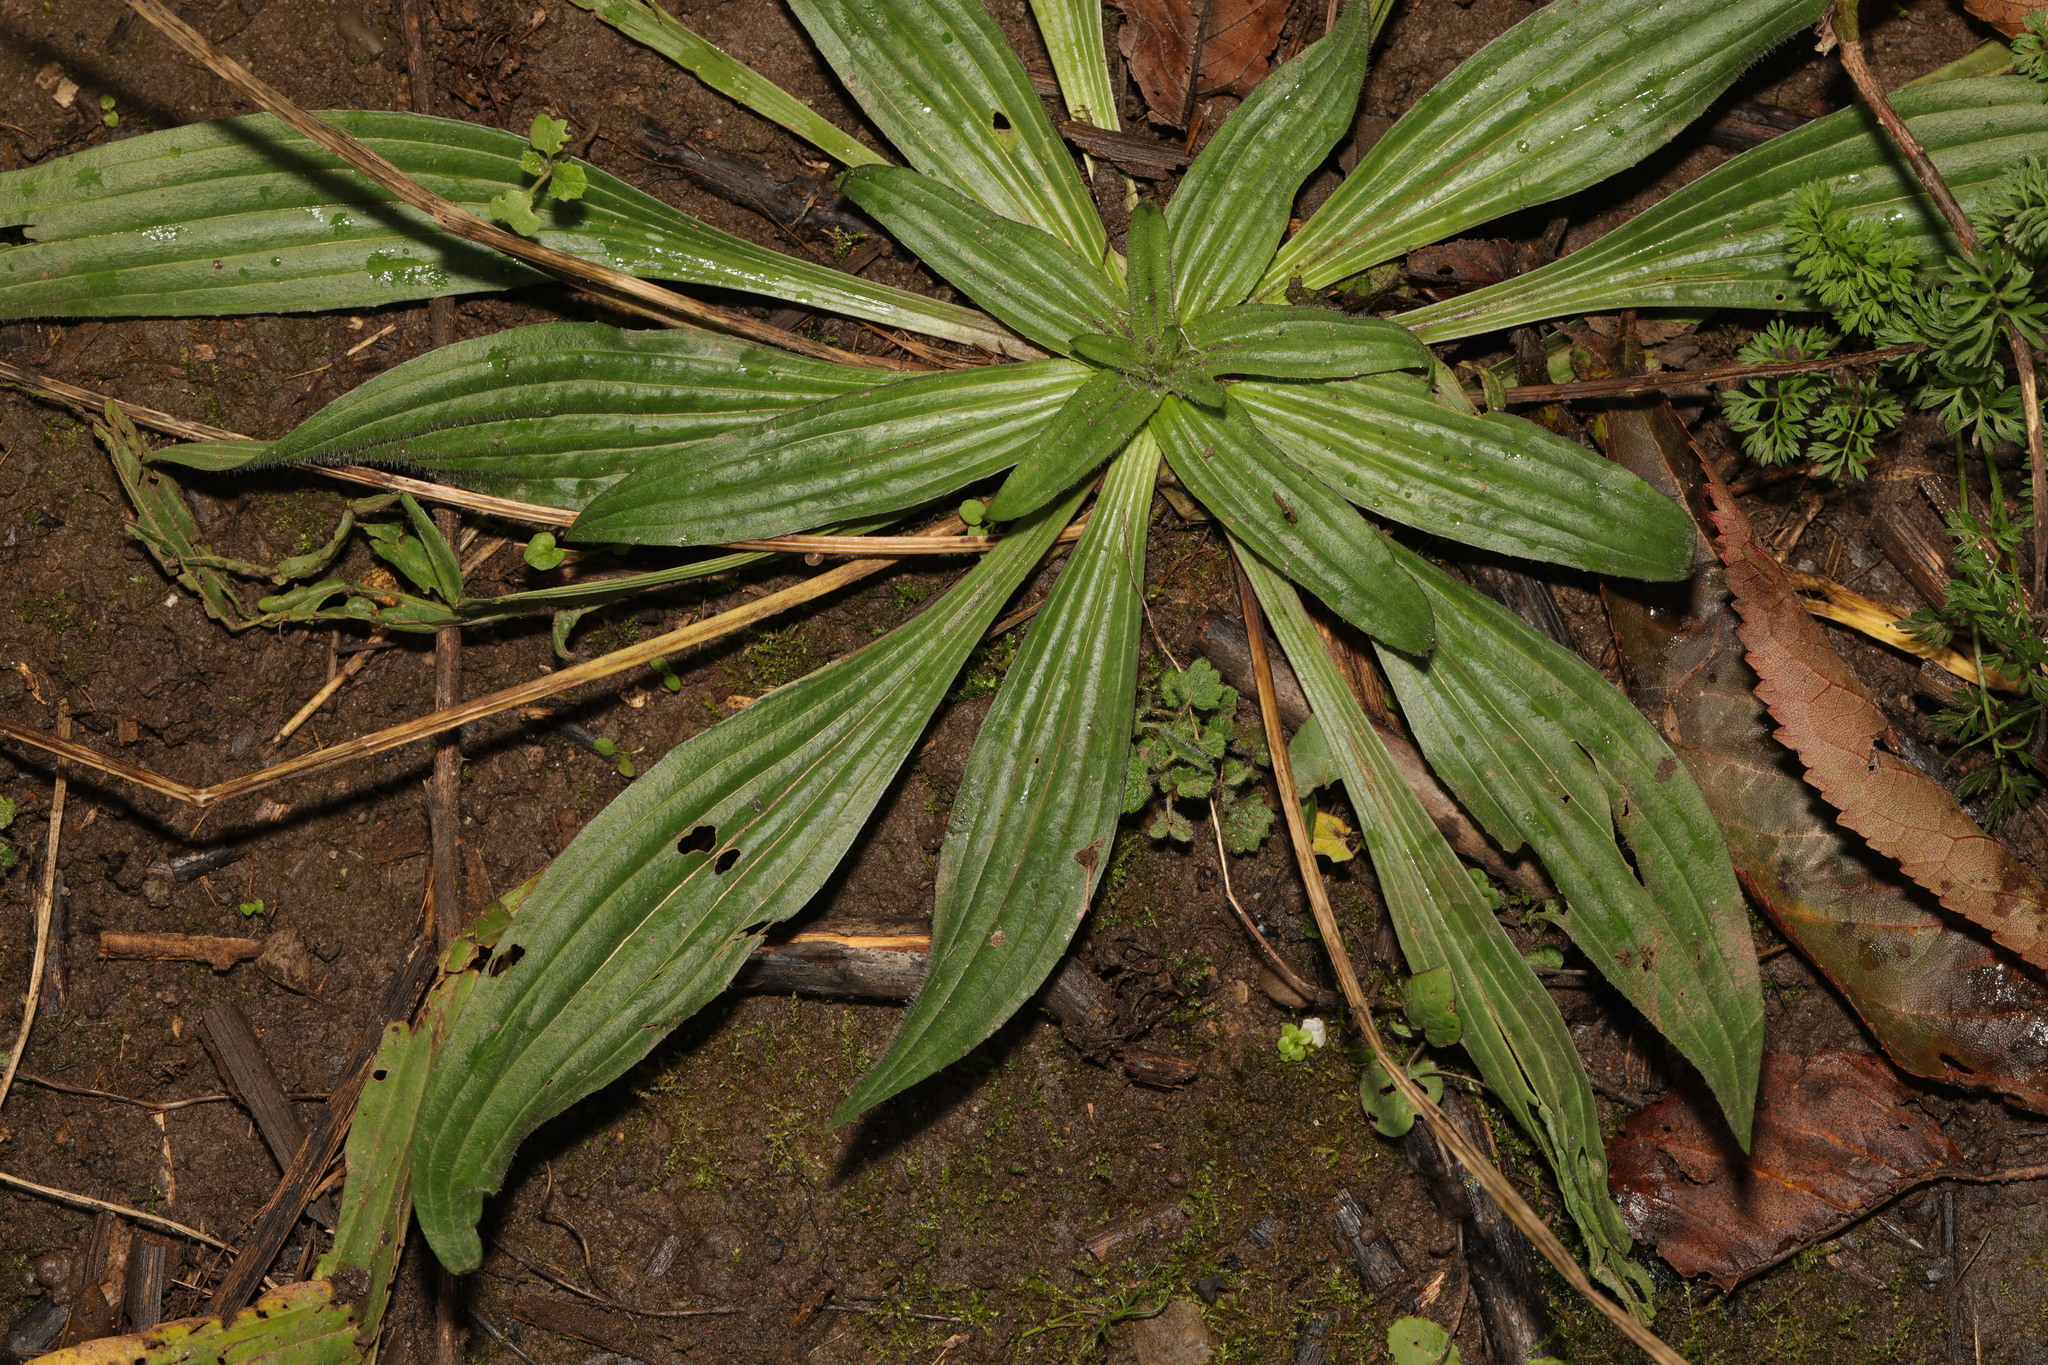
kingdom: Plantae
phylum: Tracheophyta
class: Magnoliopsida
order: Lamiales
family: Plantaginaceae
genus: Plantago
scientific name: Plantago lanceolata
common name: Ribwort plantain
